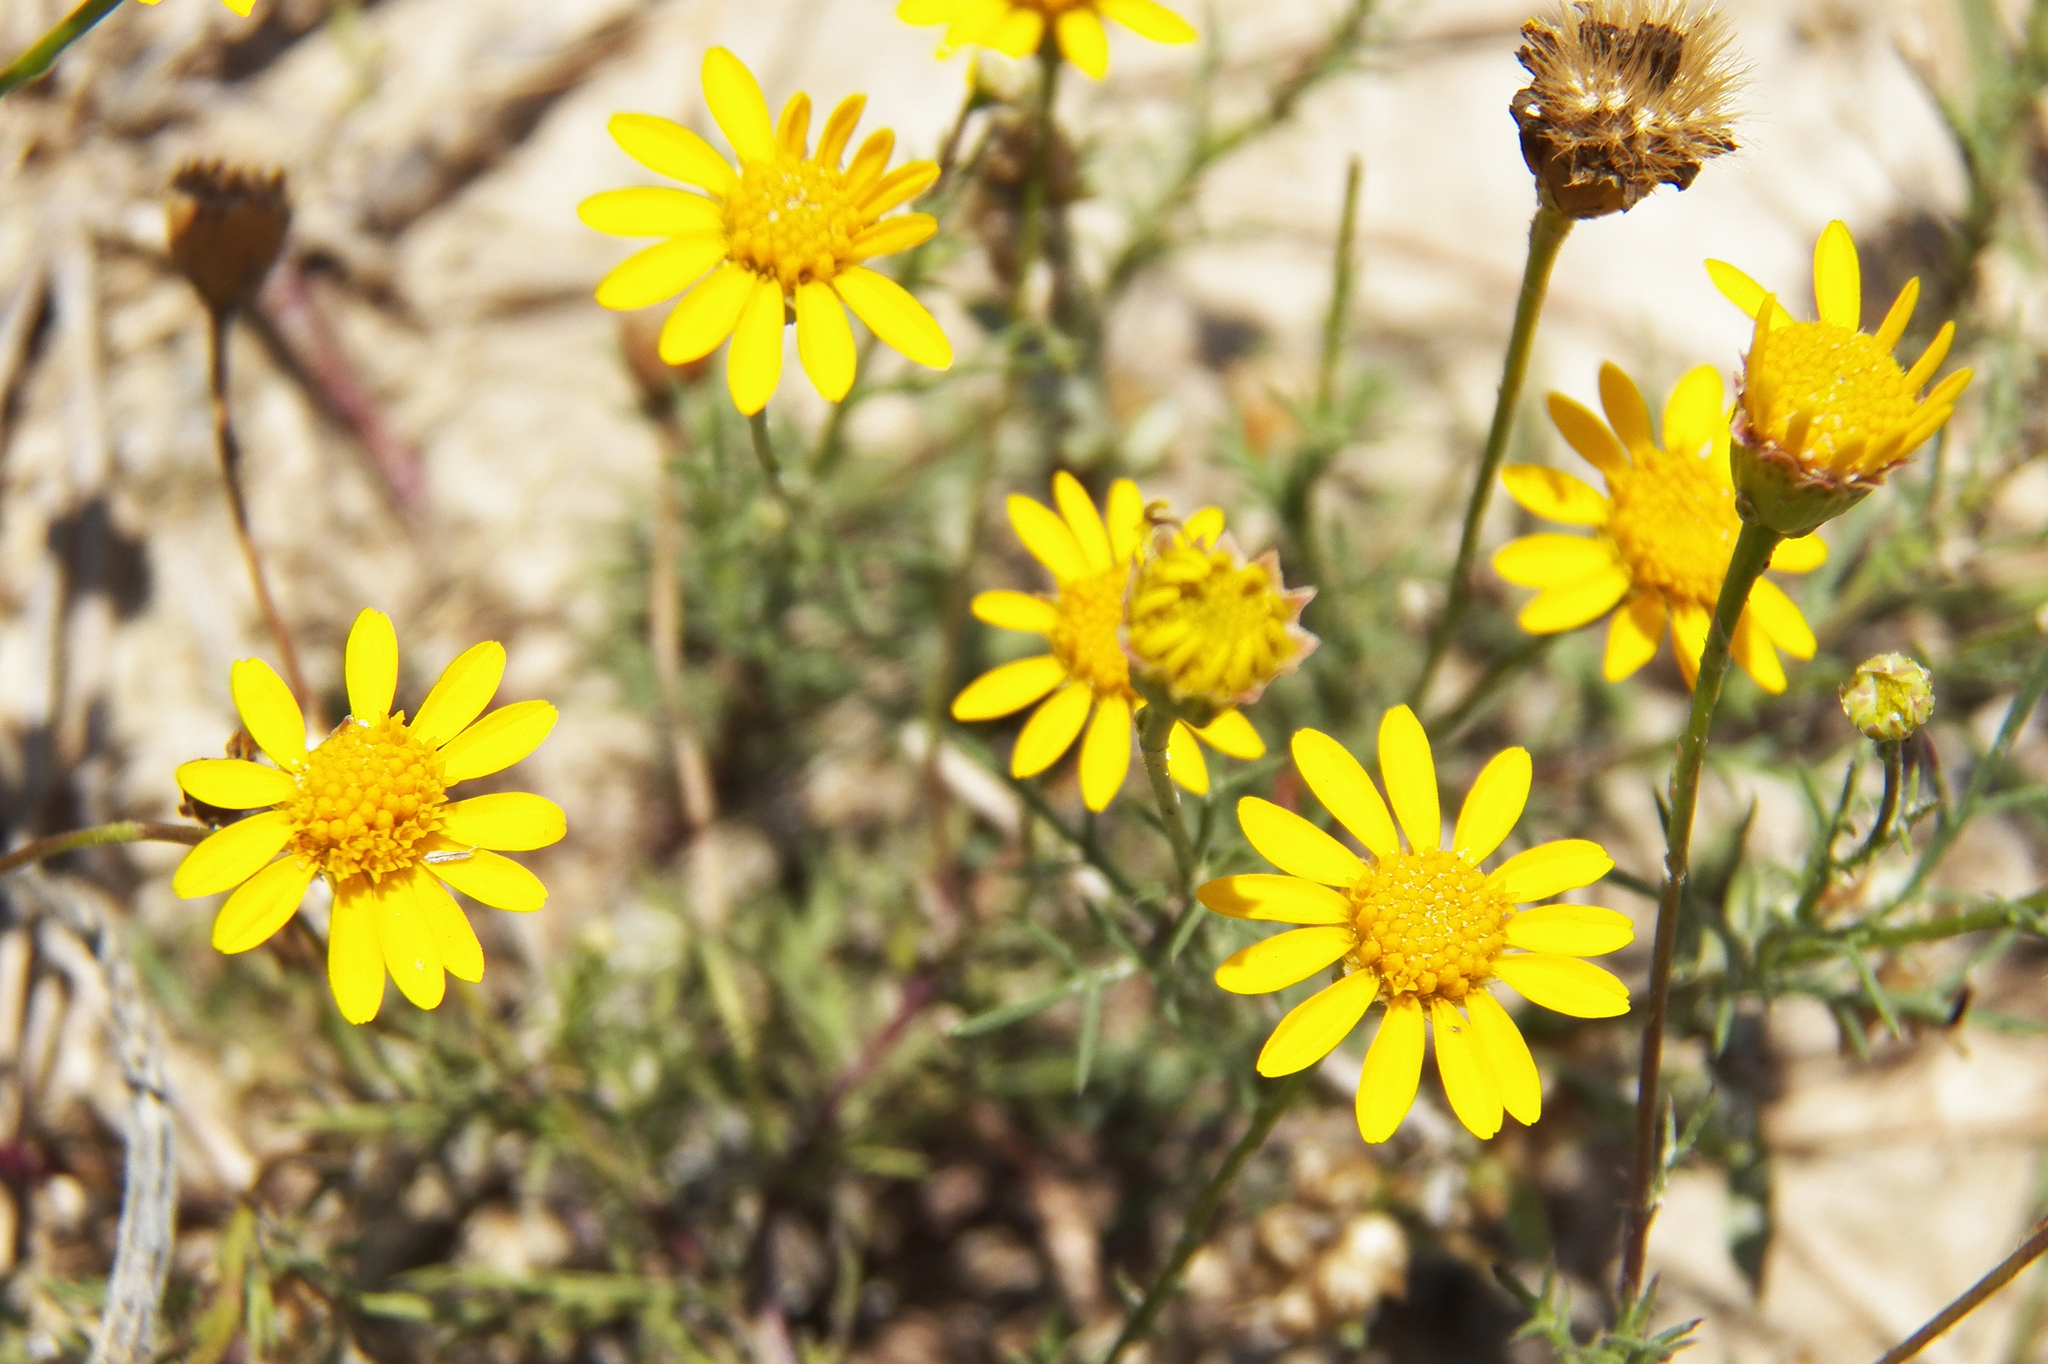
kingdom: Plantae
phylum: Tracheophyta
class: Magnoliopsida
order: Asterales
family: Asteraceae
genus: Thymophylla
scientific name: Thymophylla tenuiloba
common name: Dahlberg's daisy
